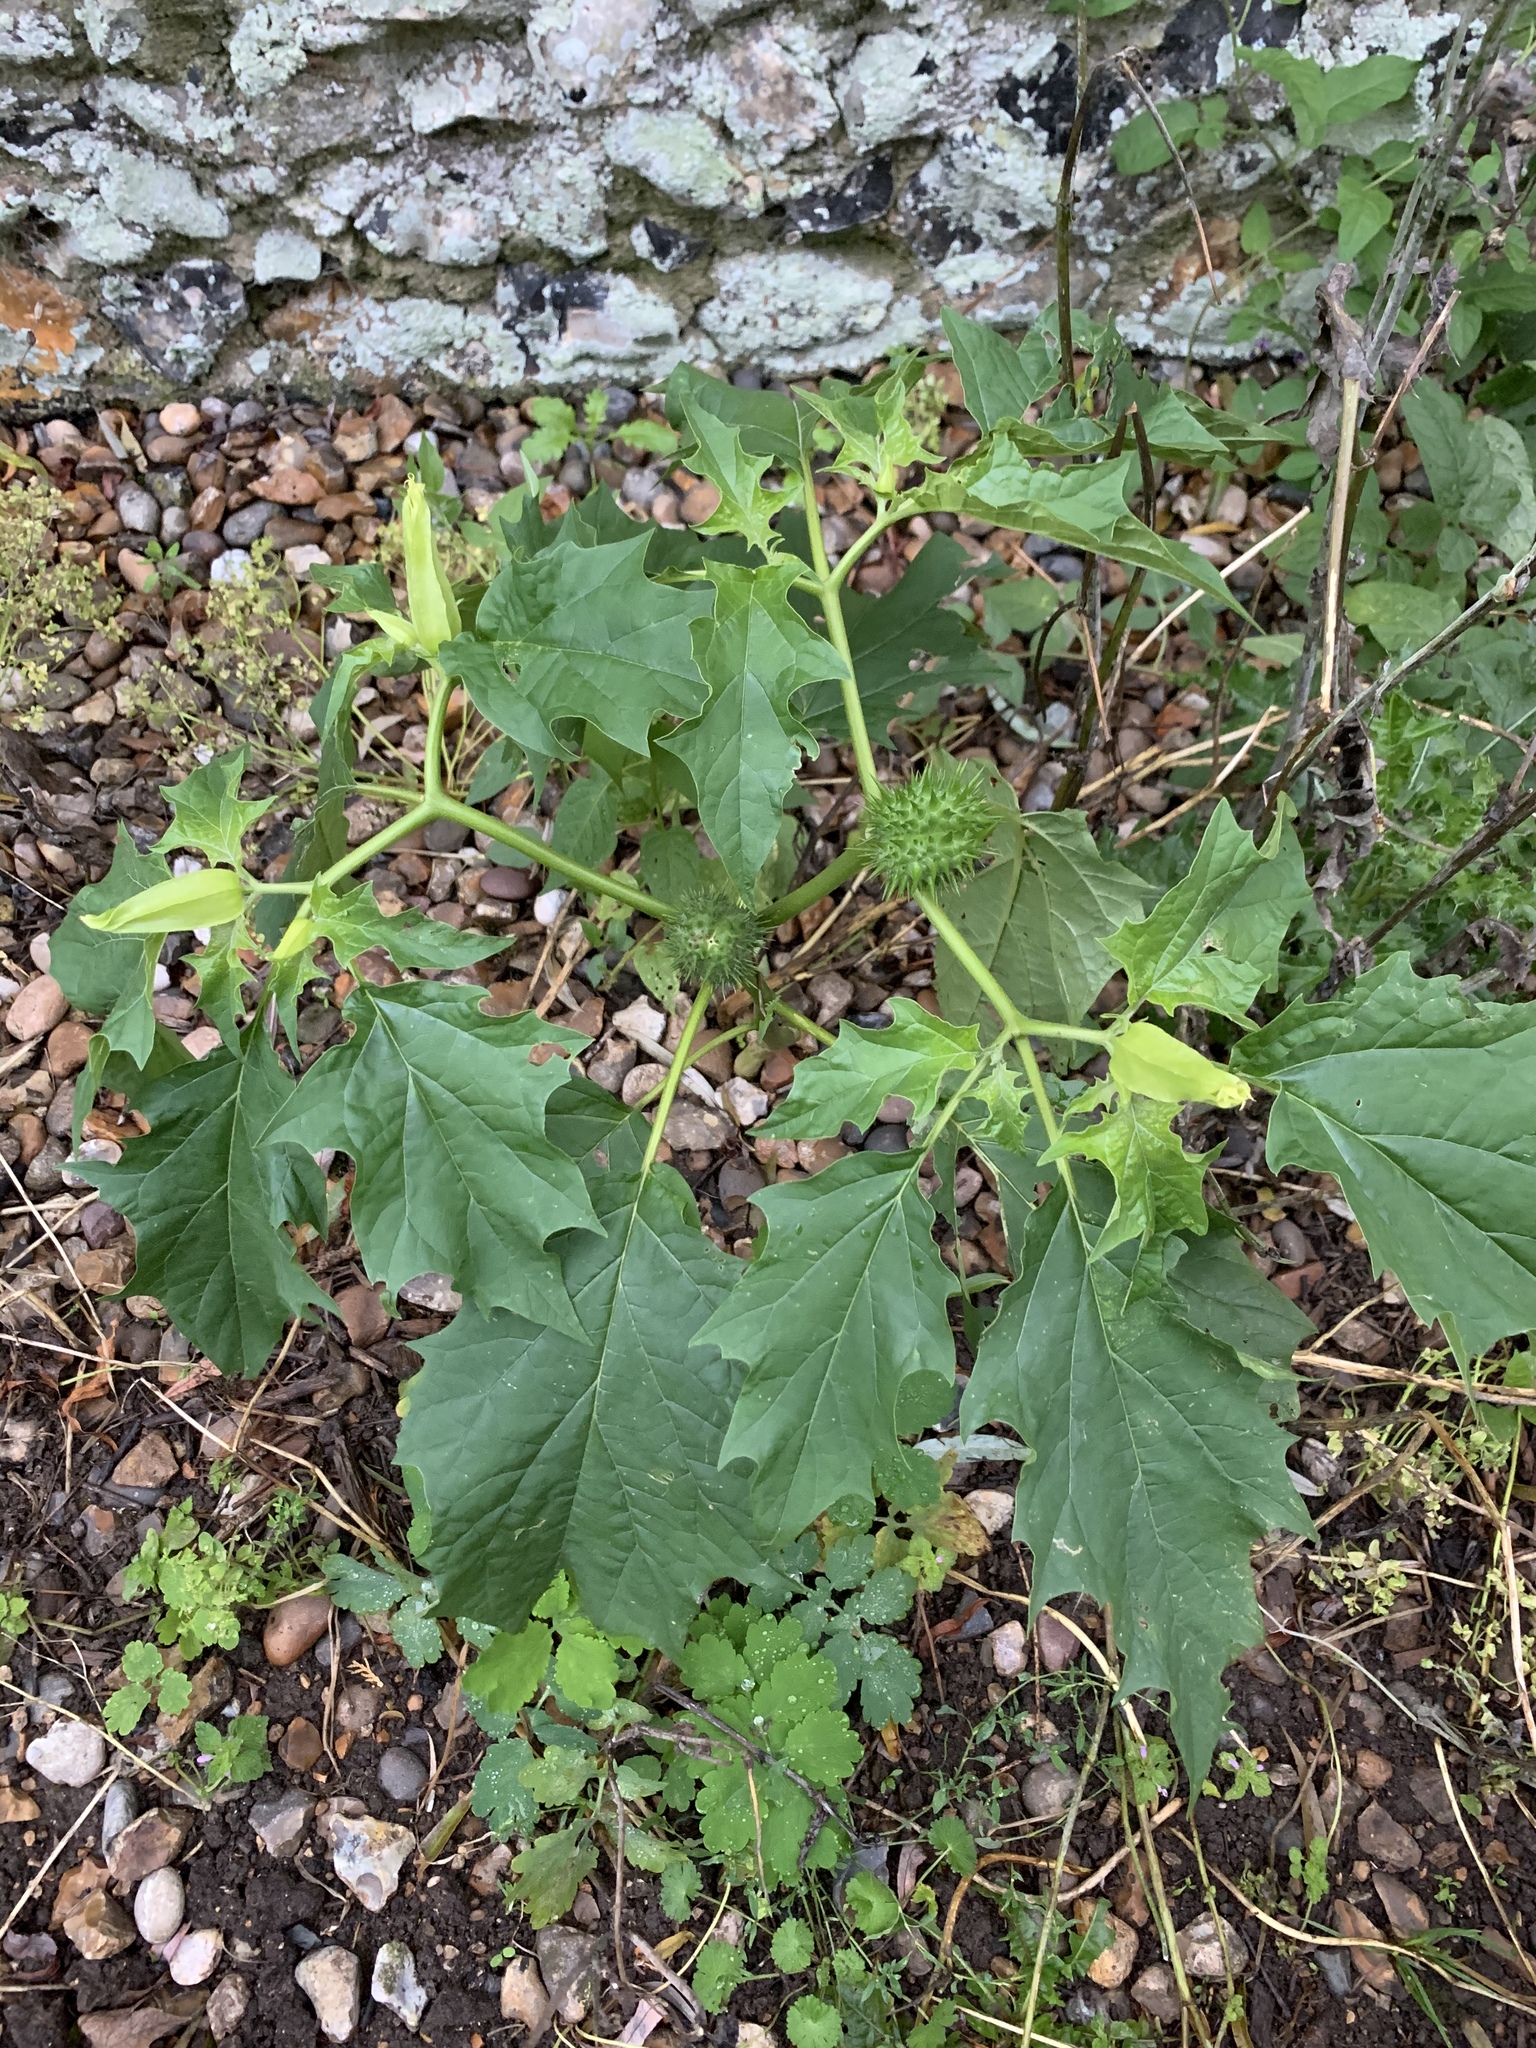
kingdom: Plantae
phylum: Tracheophyta
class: Magnoliopsida
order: Solanales
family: Solanaceae
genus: Datura
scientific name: Datura stramonium
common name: Thorn-apple
